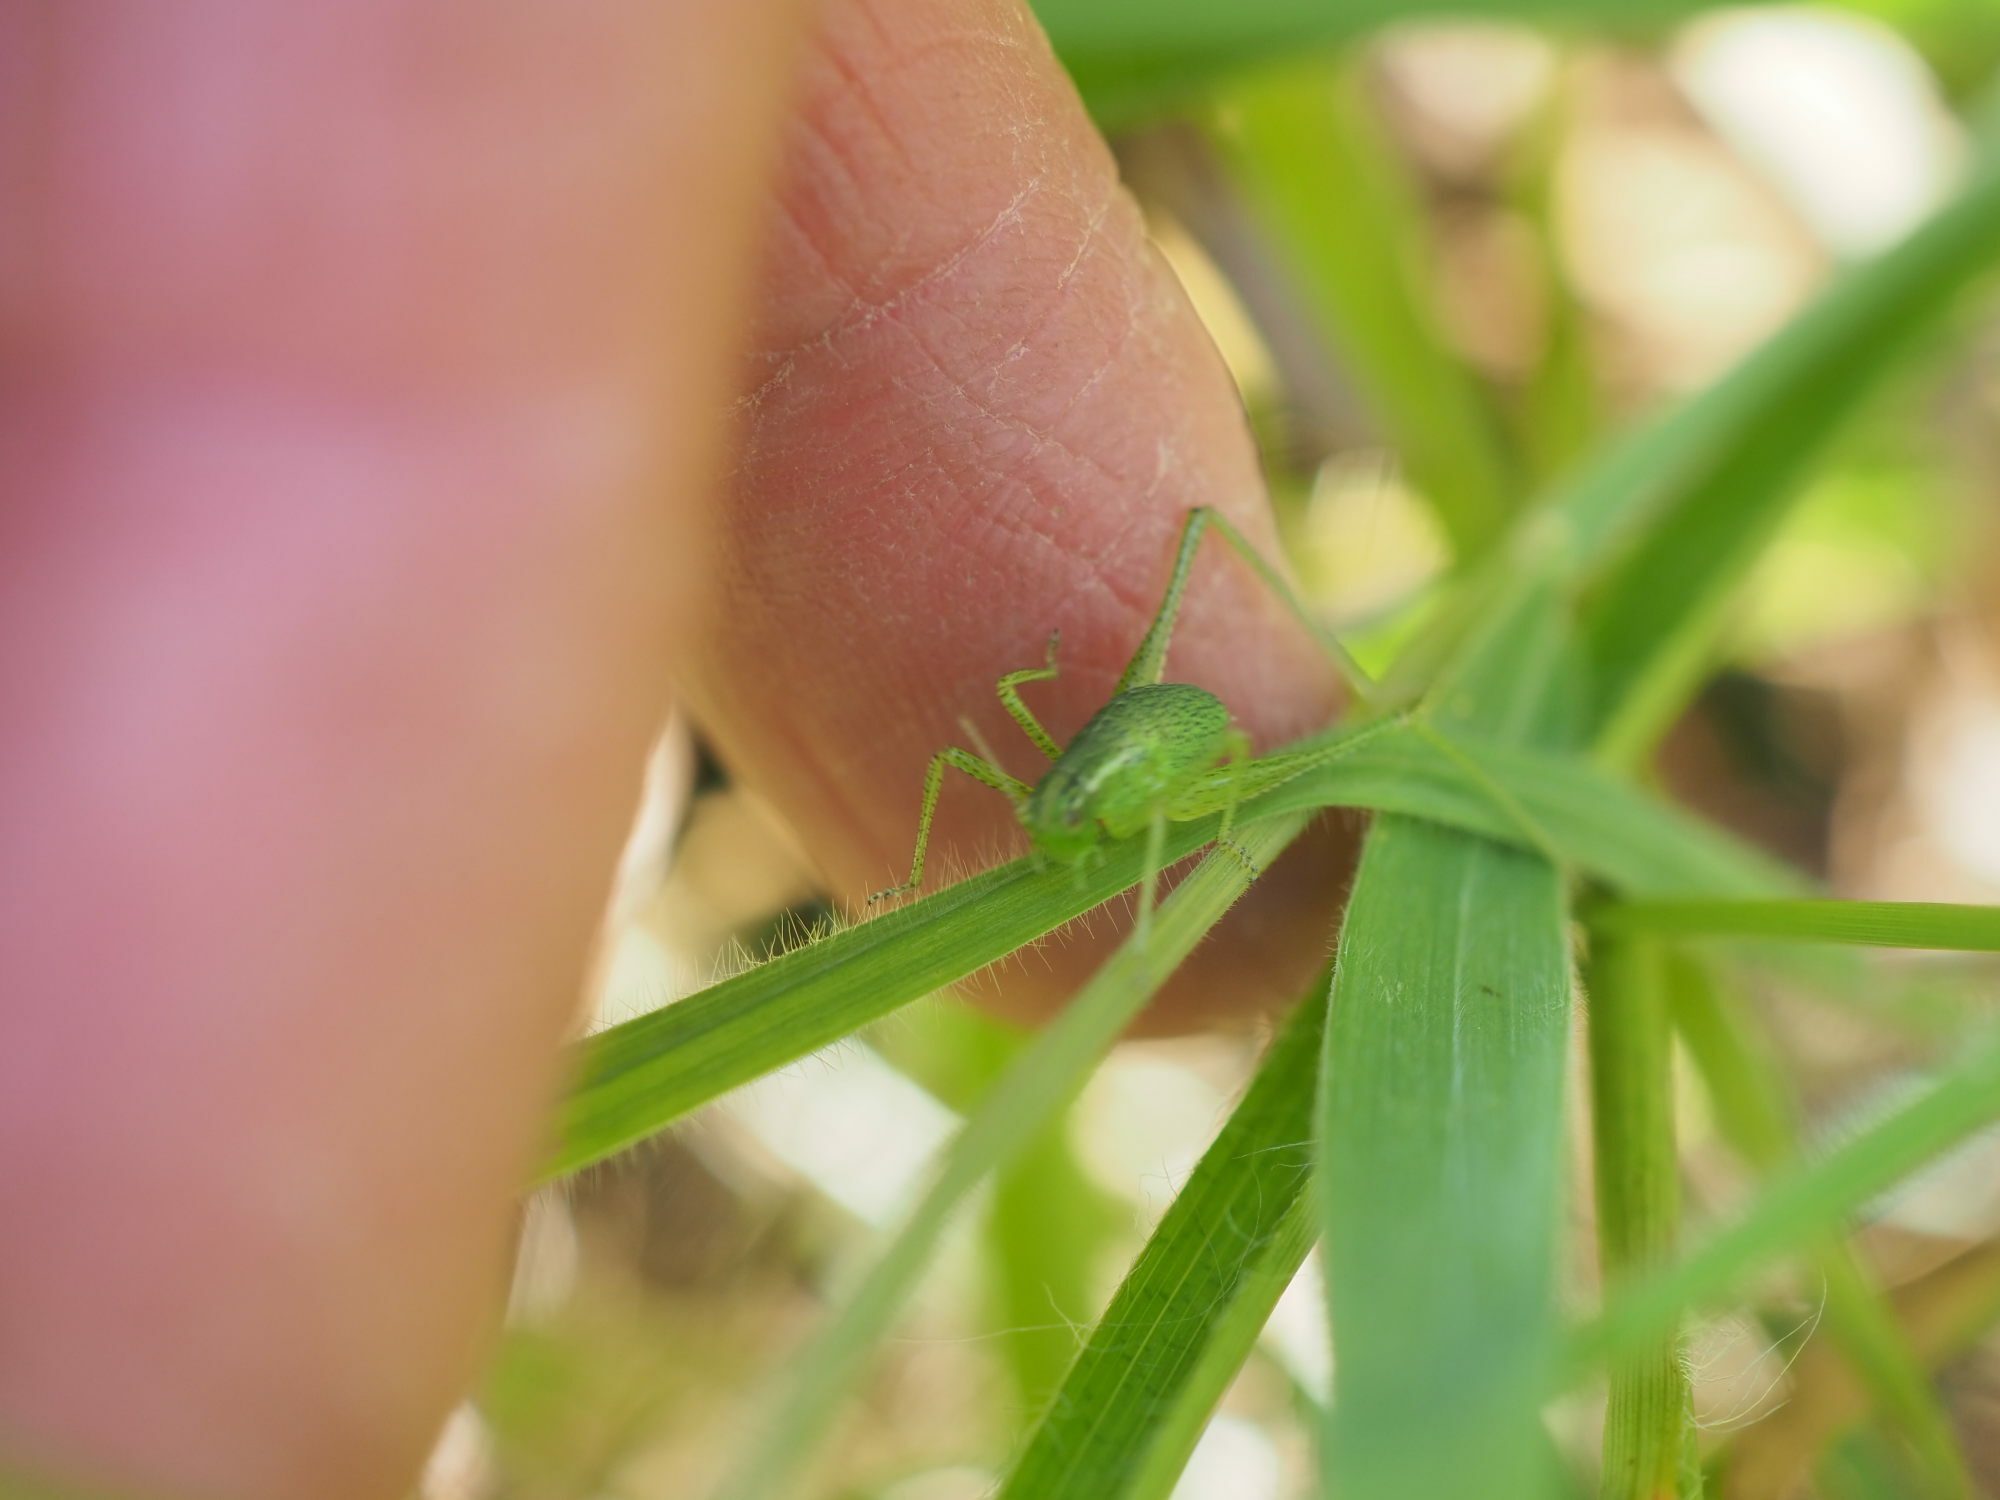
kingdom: Animalia
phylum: Arthropoda
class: Insecta
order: Orthoptera
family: Tettigoniidae
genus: Leptophyes
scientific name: Leptophyes punctatissima
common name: Speckled bush-cricket
